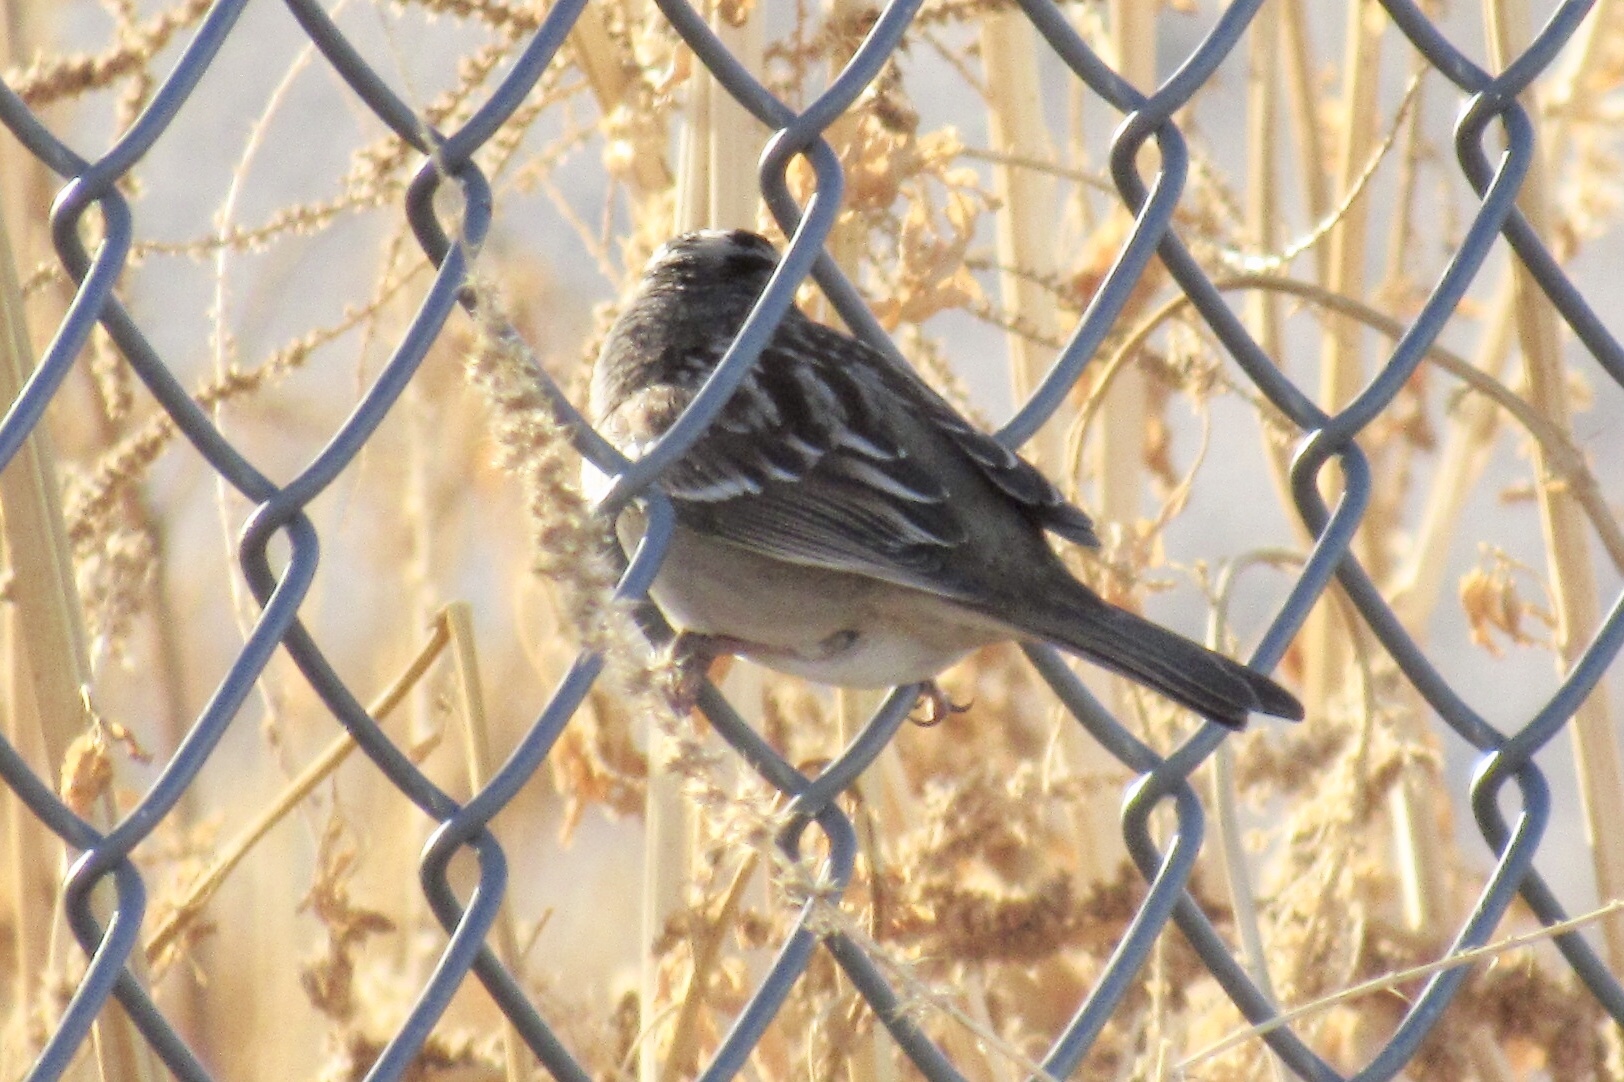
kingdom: Animalia
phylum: Chordata
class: Aves
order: Passeriformes
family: Passerellidae
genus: Zonotrichia
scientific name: Zonotrichia leucophrys
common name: White-crowned sparrow
